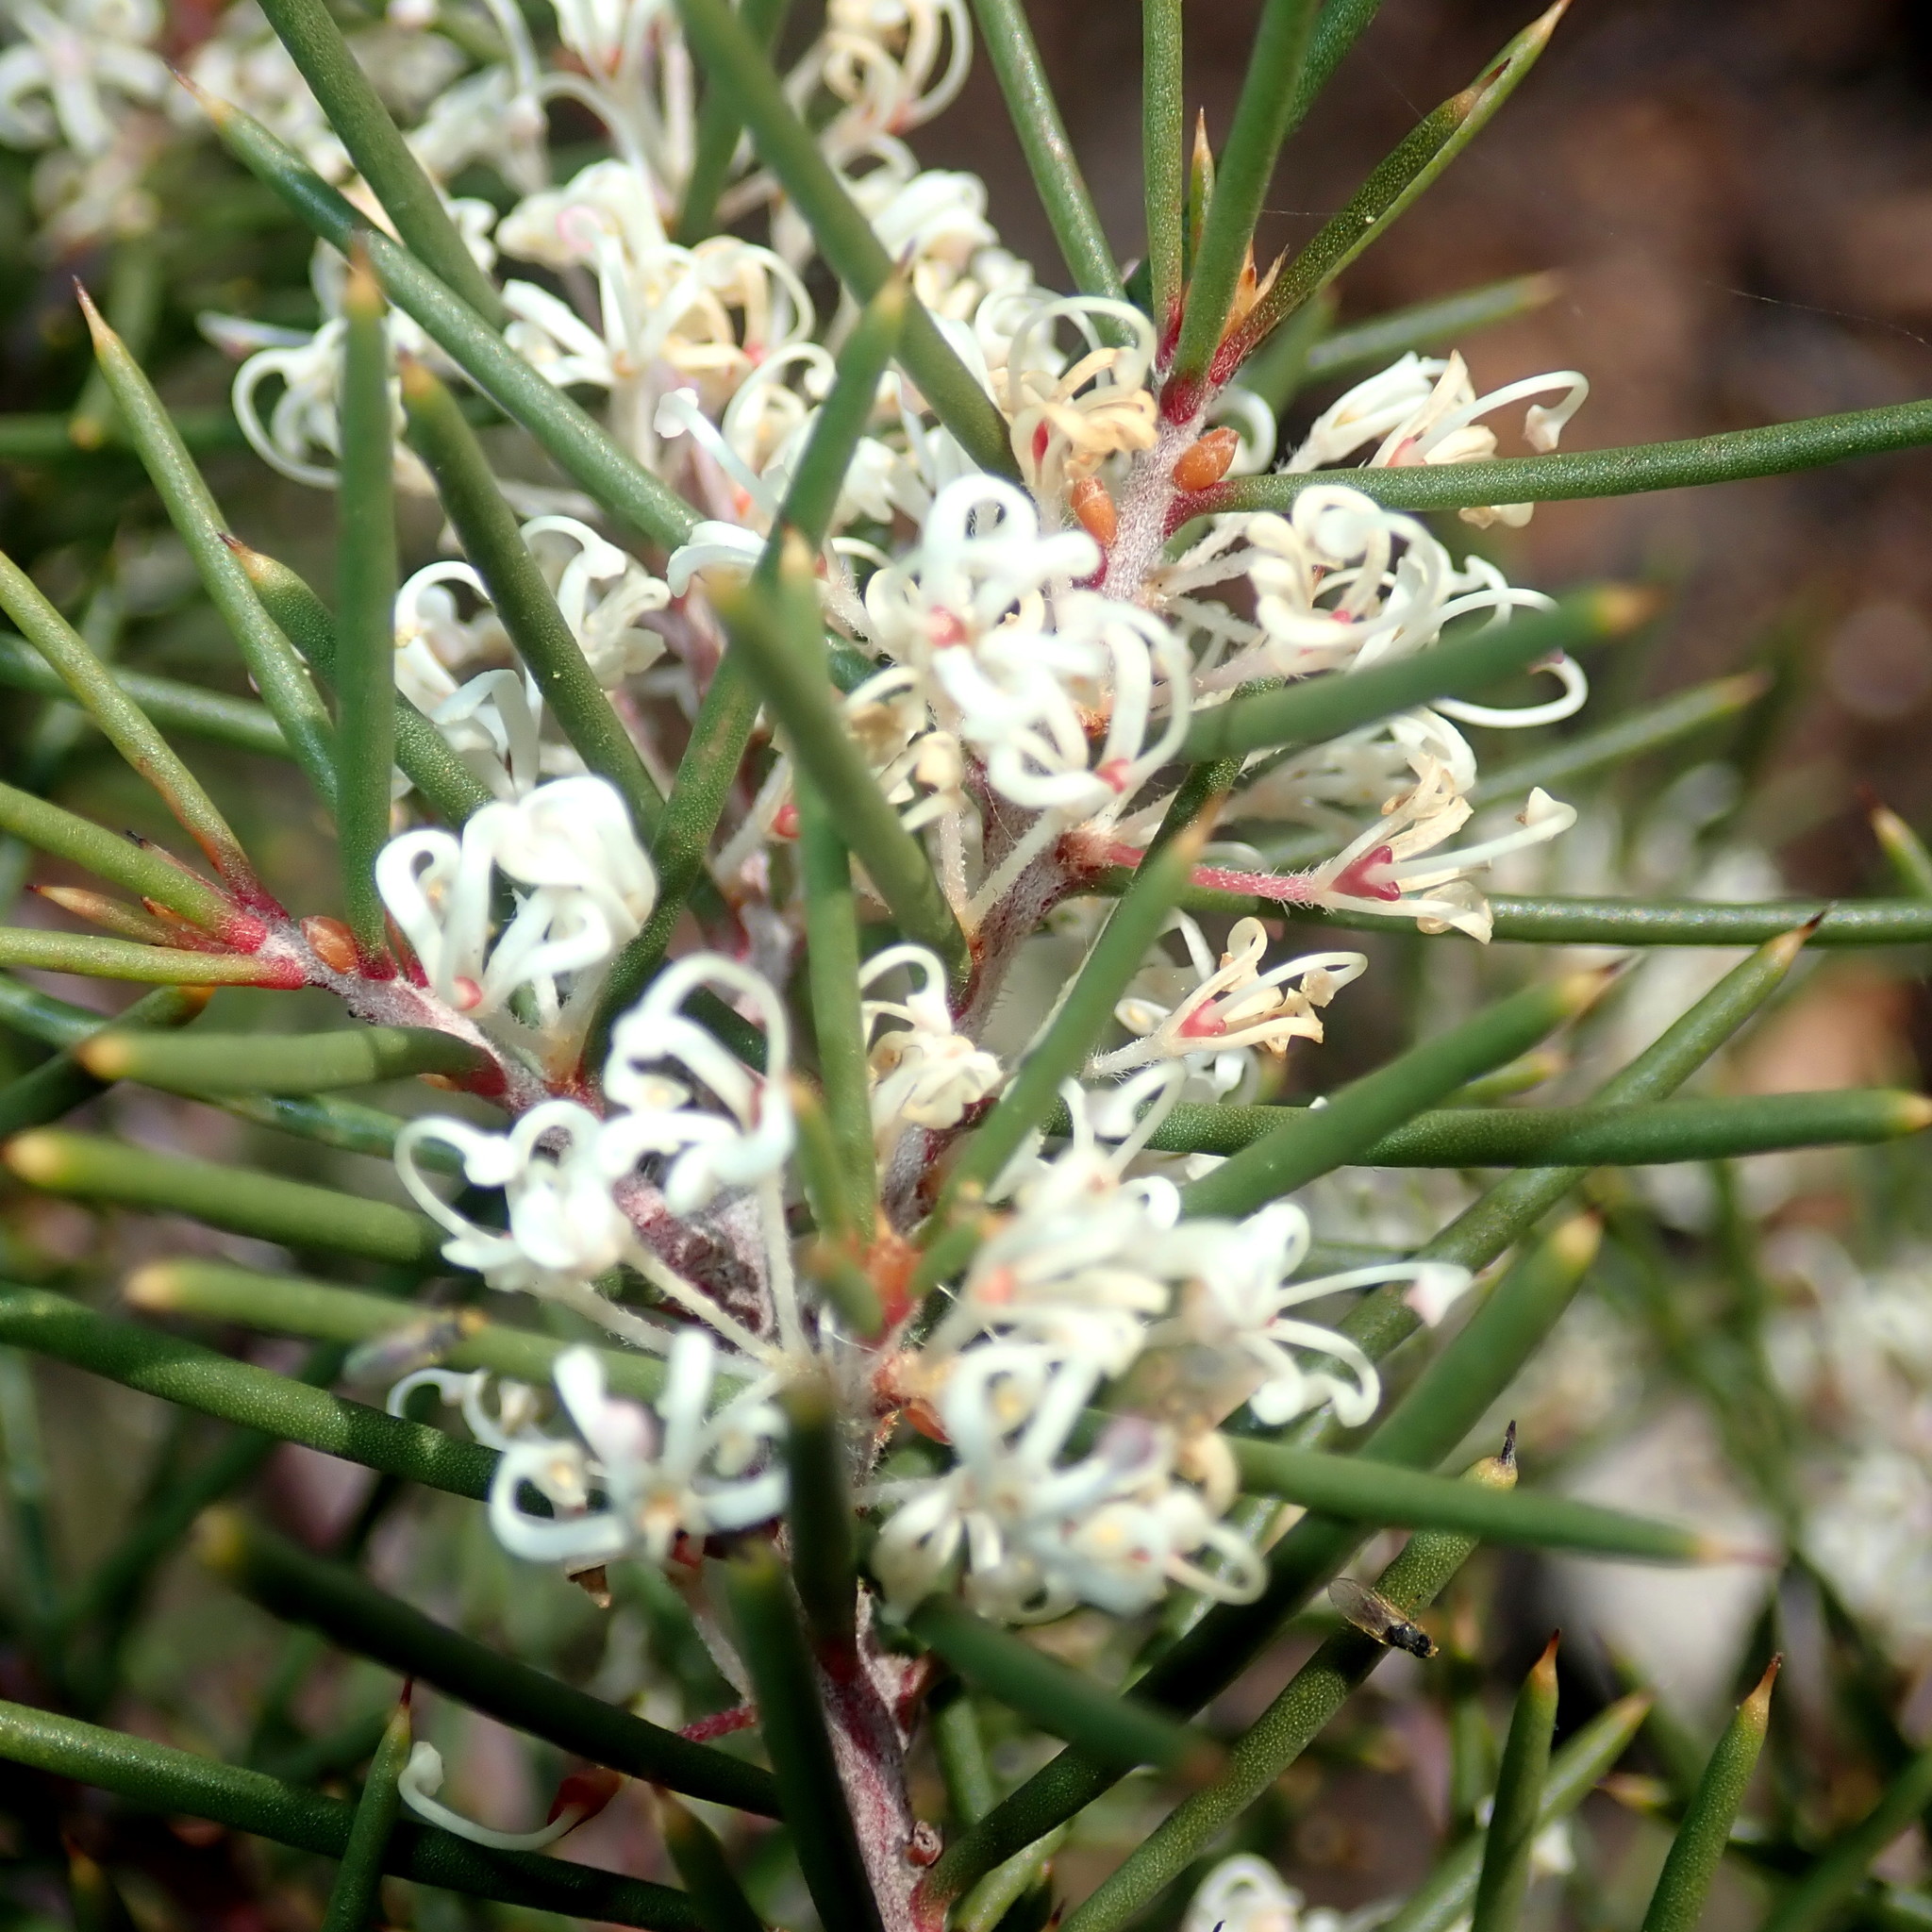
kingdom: Plantae
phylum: Tracheophyta
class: Magnoliopsida
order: Proteales
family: Proteaceae
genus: Hakea
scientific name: Hakea sericea
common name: Needle bush
